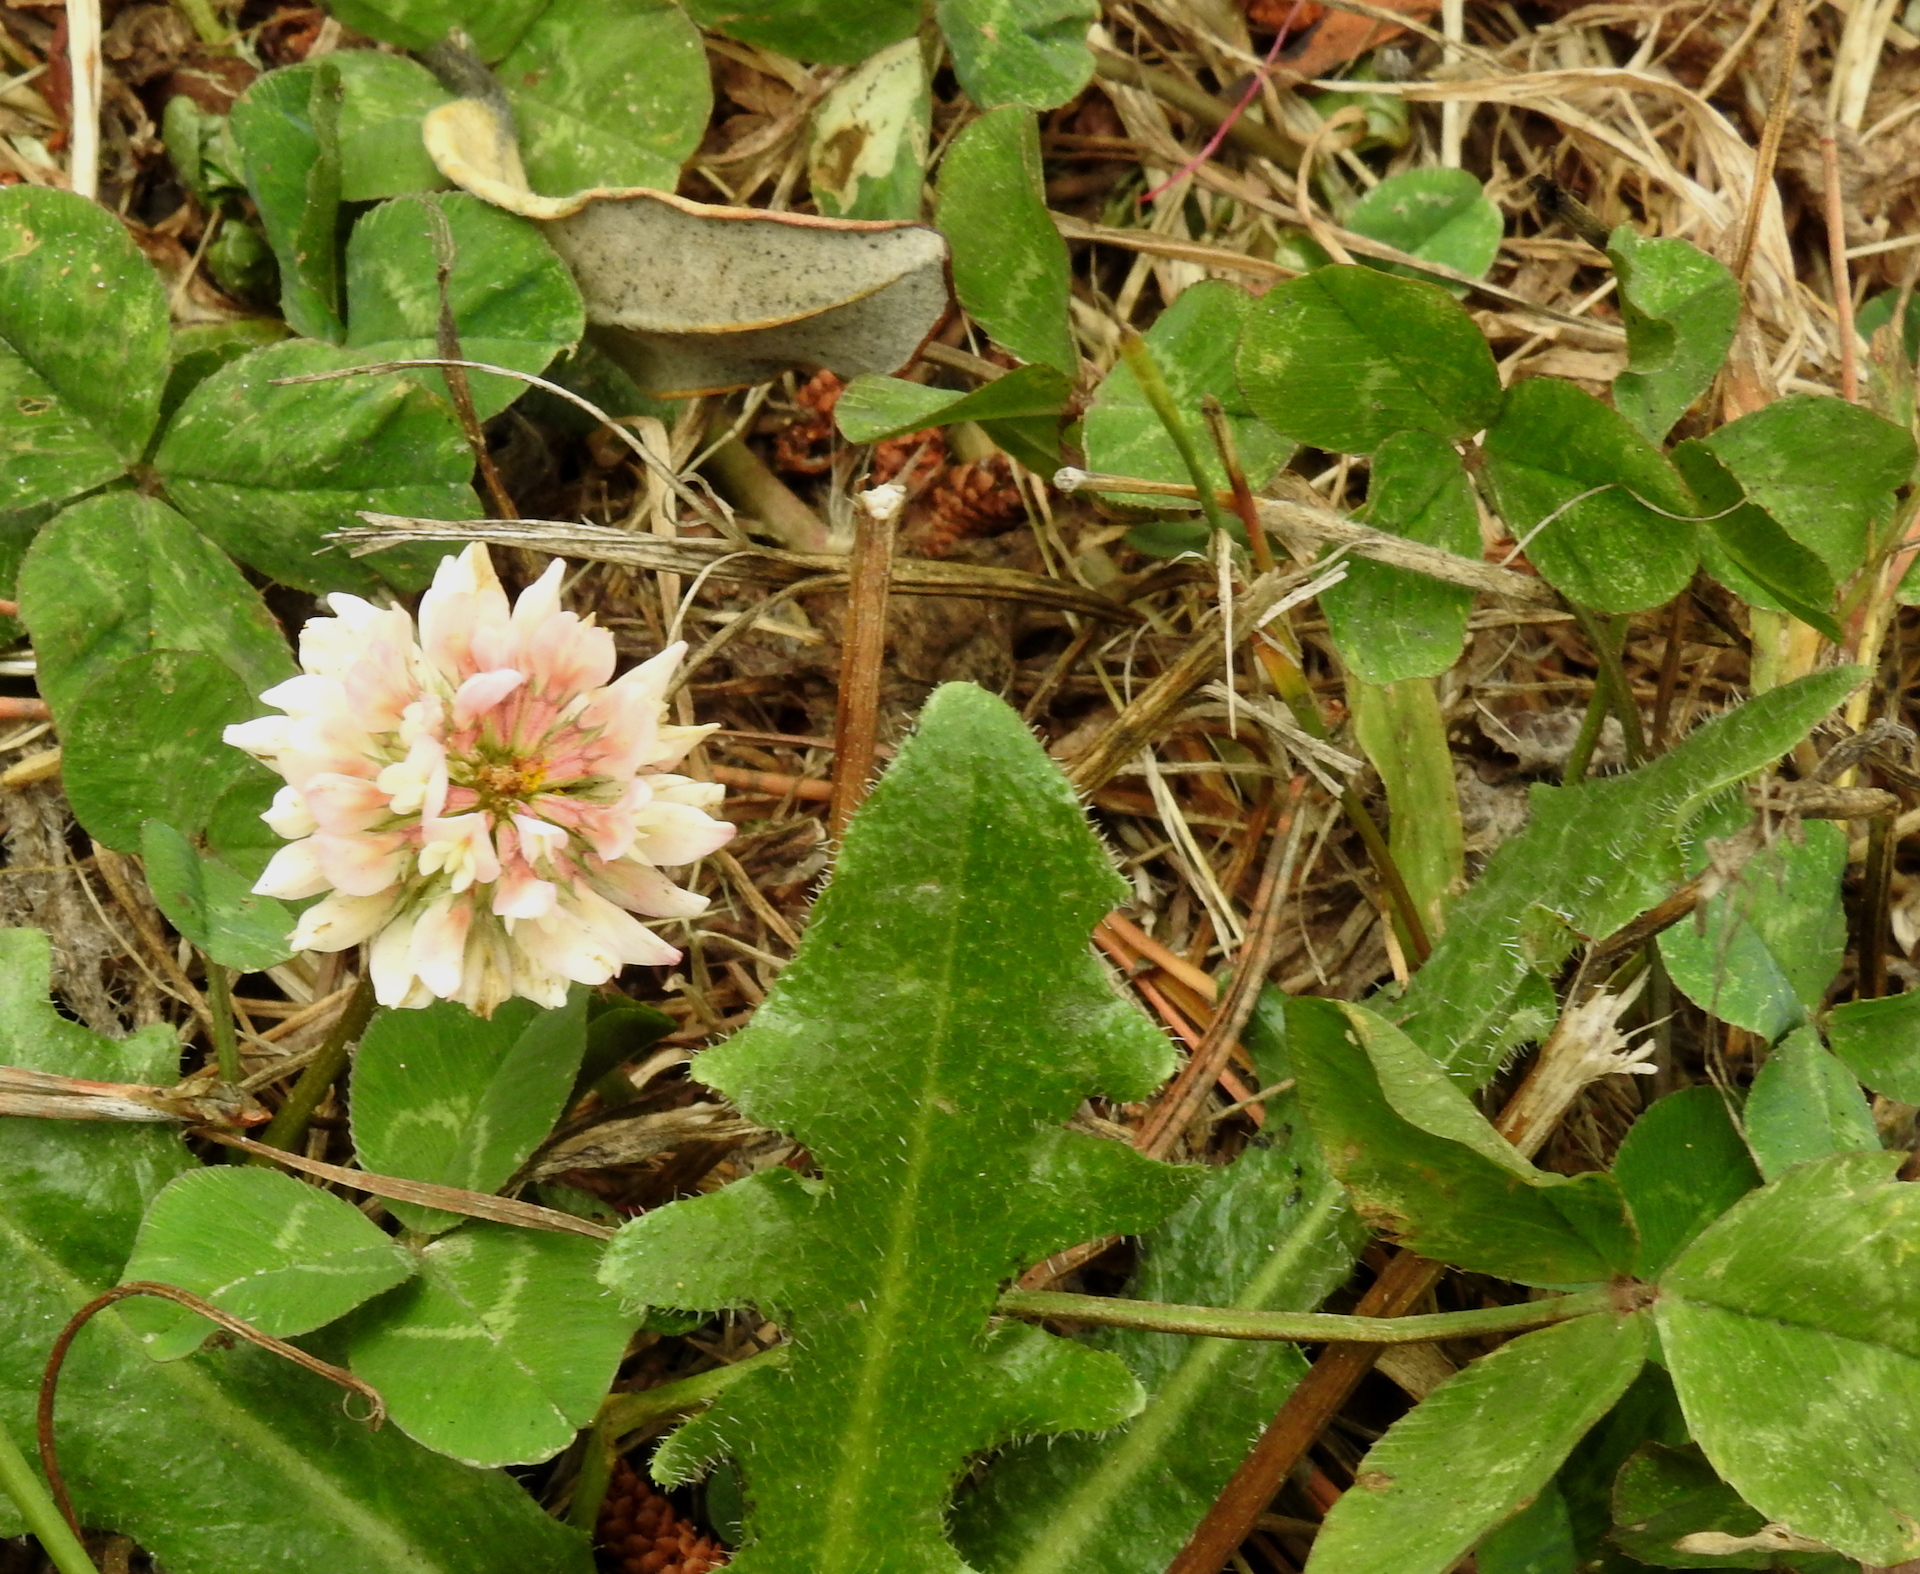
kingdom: Plantae
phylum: Tracheophyta
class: Magnoliopsida
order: Fabales
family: Fabaceae
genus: Trifolium
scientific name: Trifolium repens
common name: White clover
